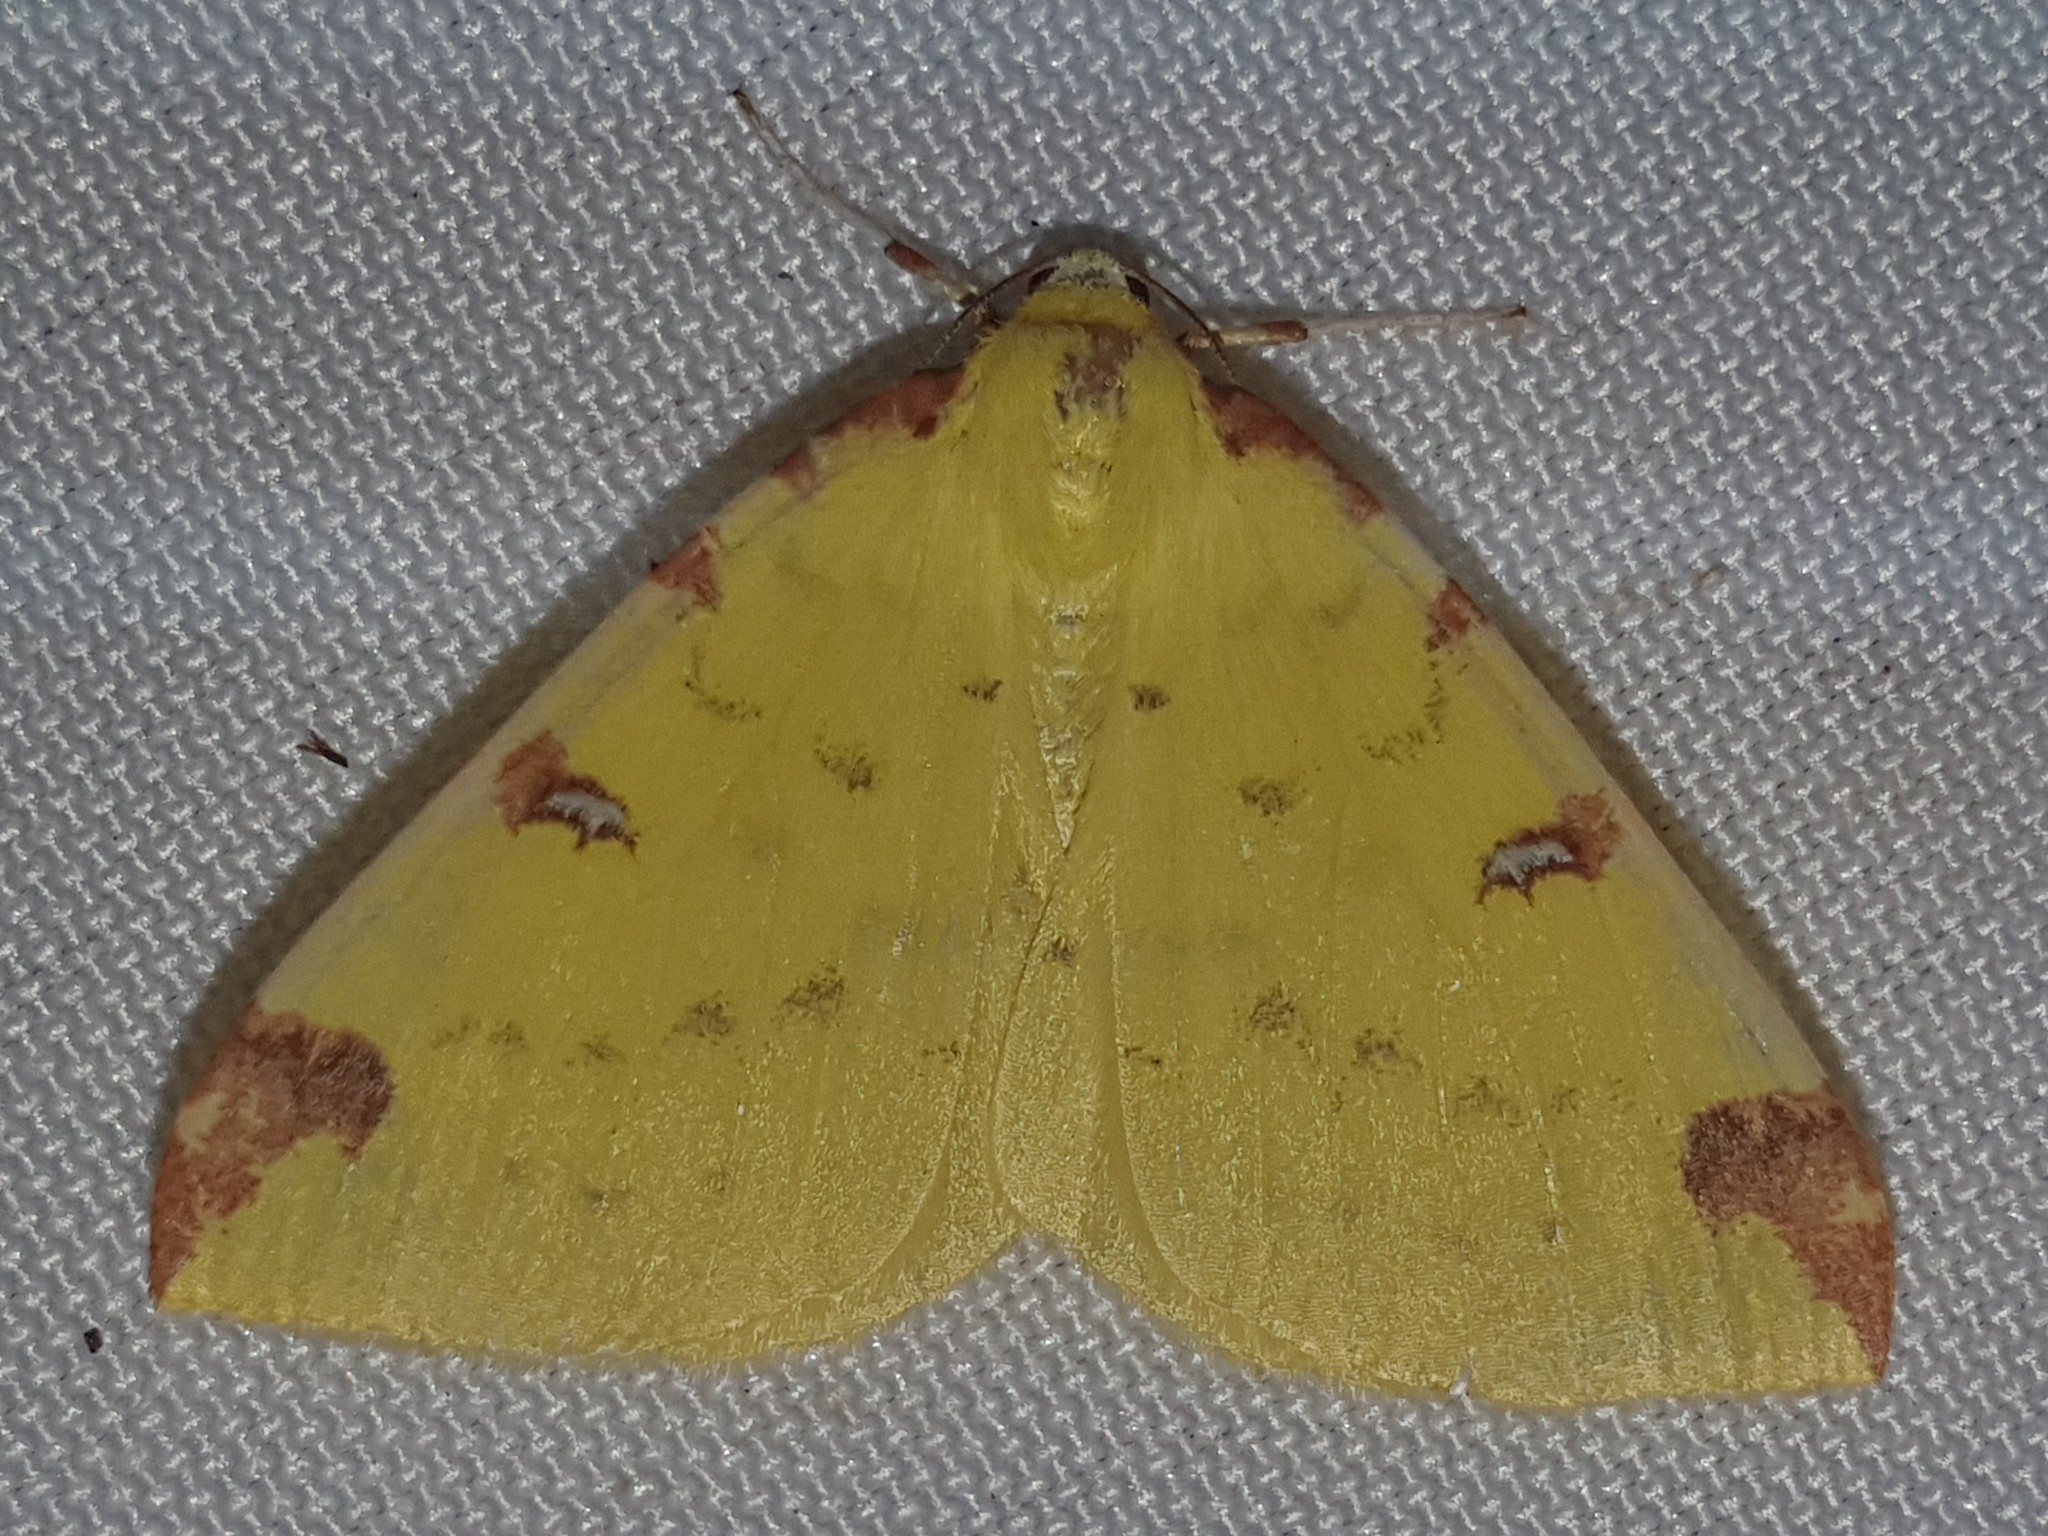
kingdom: Animalia
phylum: Arthropoda
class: Insecta
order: Lepidoptera
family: Geometridae
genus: Opisthograptis
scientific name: Opisthograptis luteolata
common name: Brimstone moth
